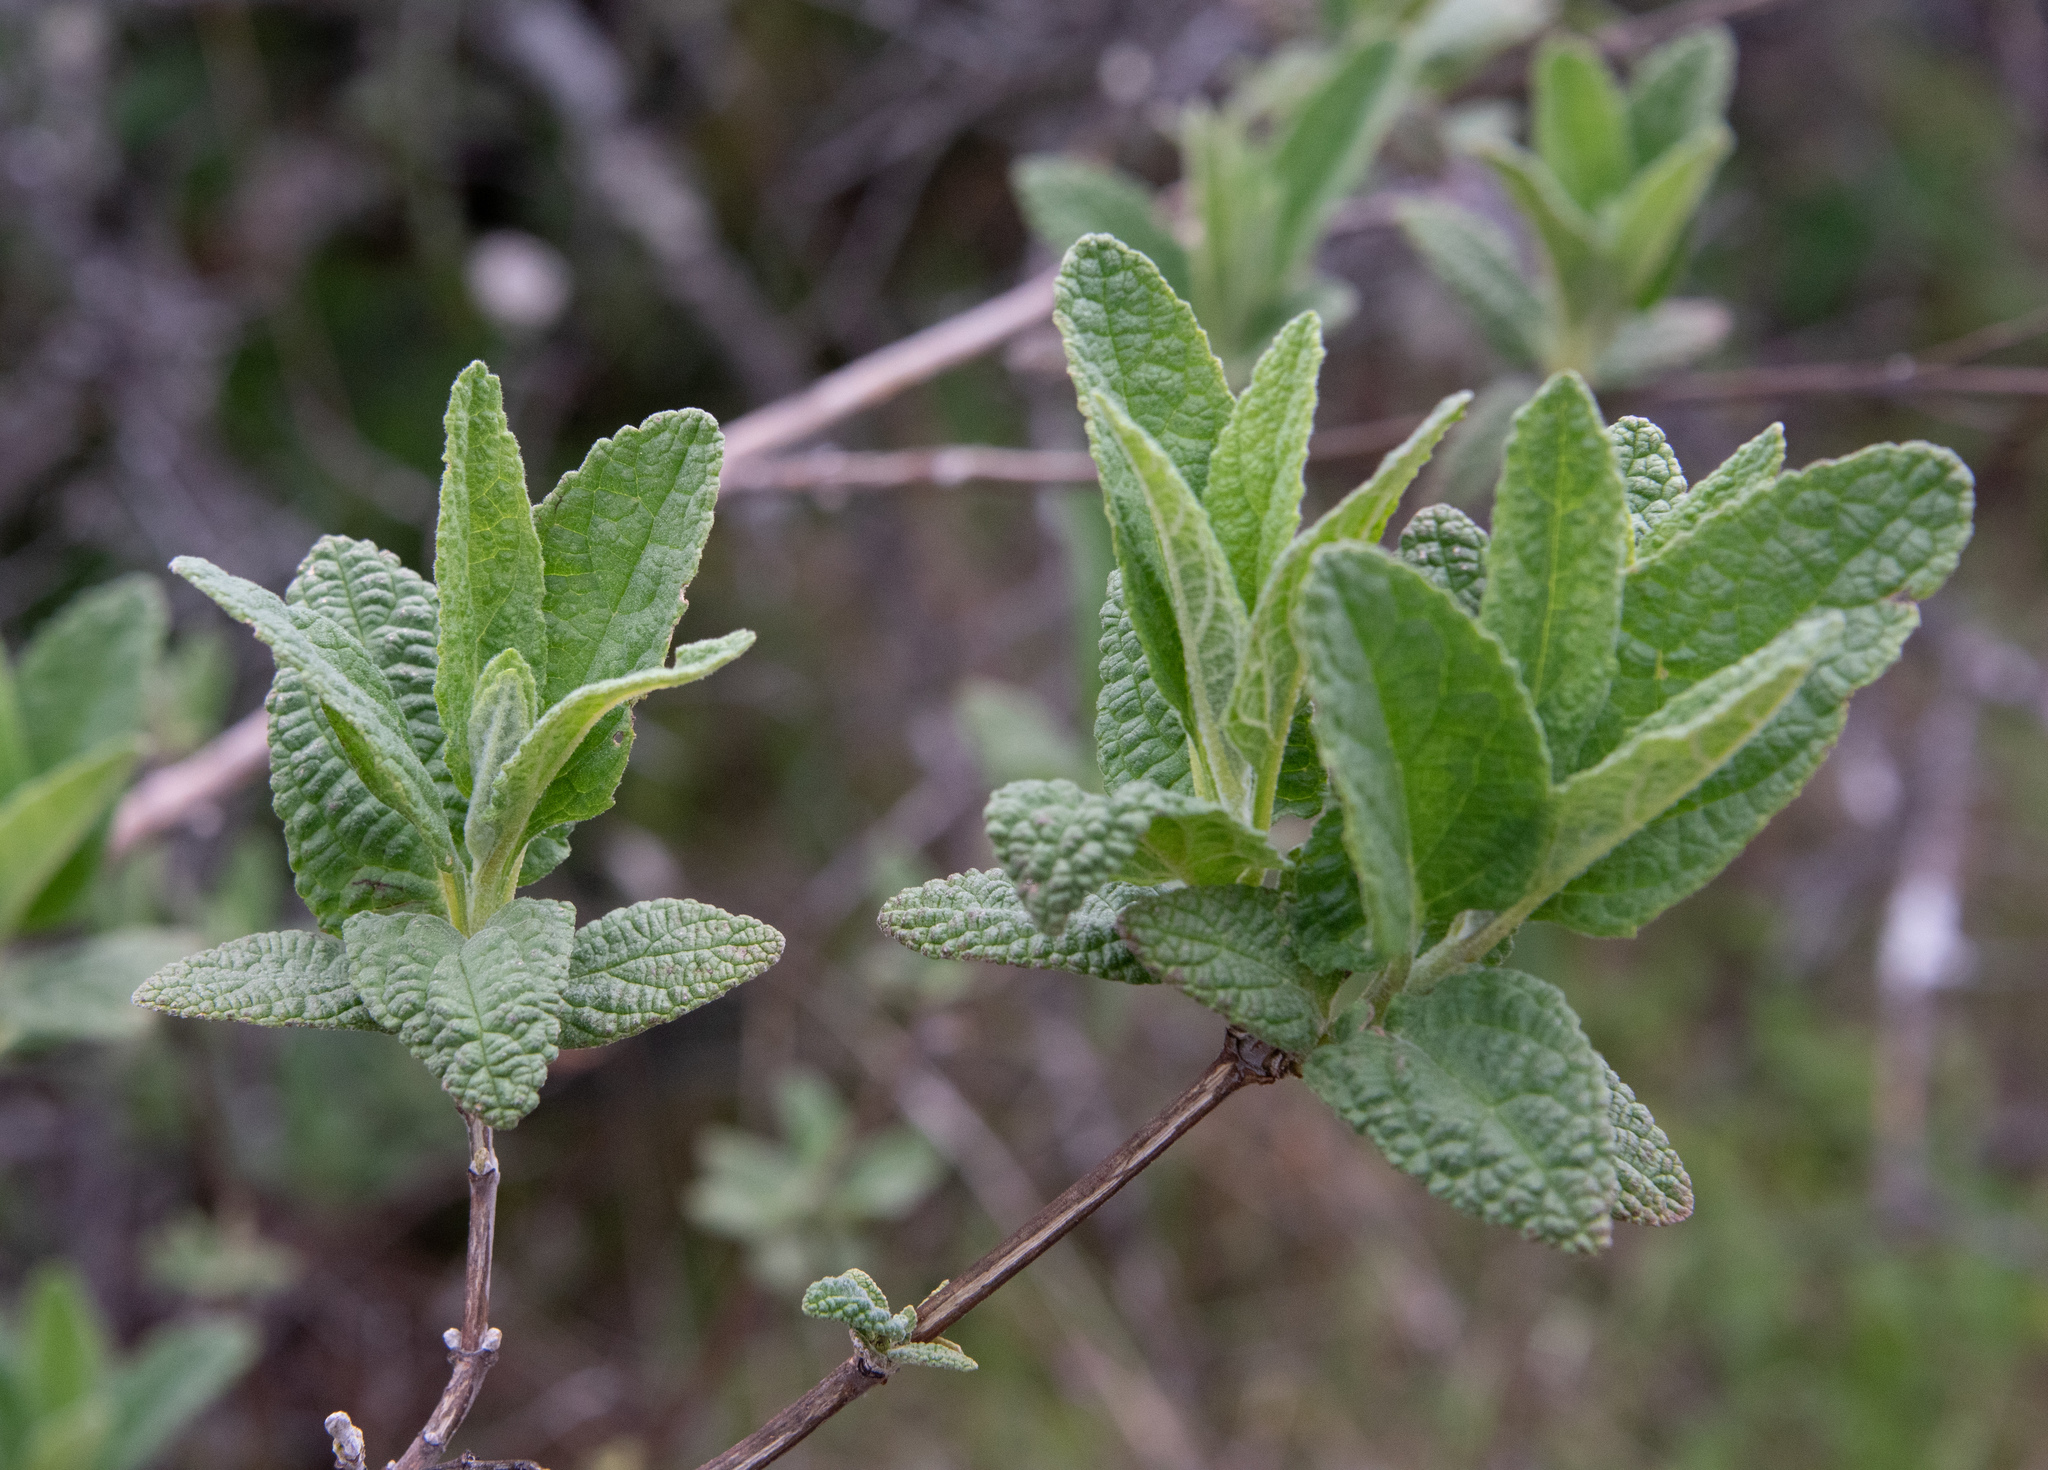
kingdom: Plantae
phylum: Tracheophyta
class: Magnoliopsida
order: Lamiales
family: Lamiaceae
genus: Lepechinia
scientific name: Lepechinia calycina
